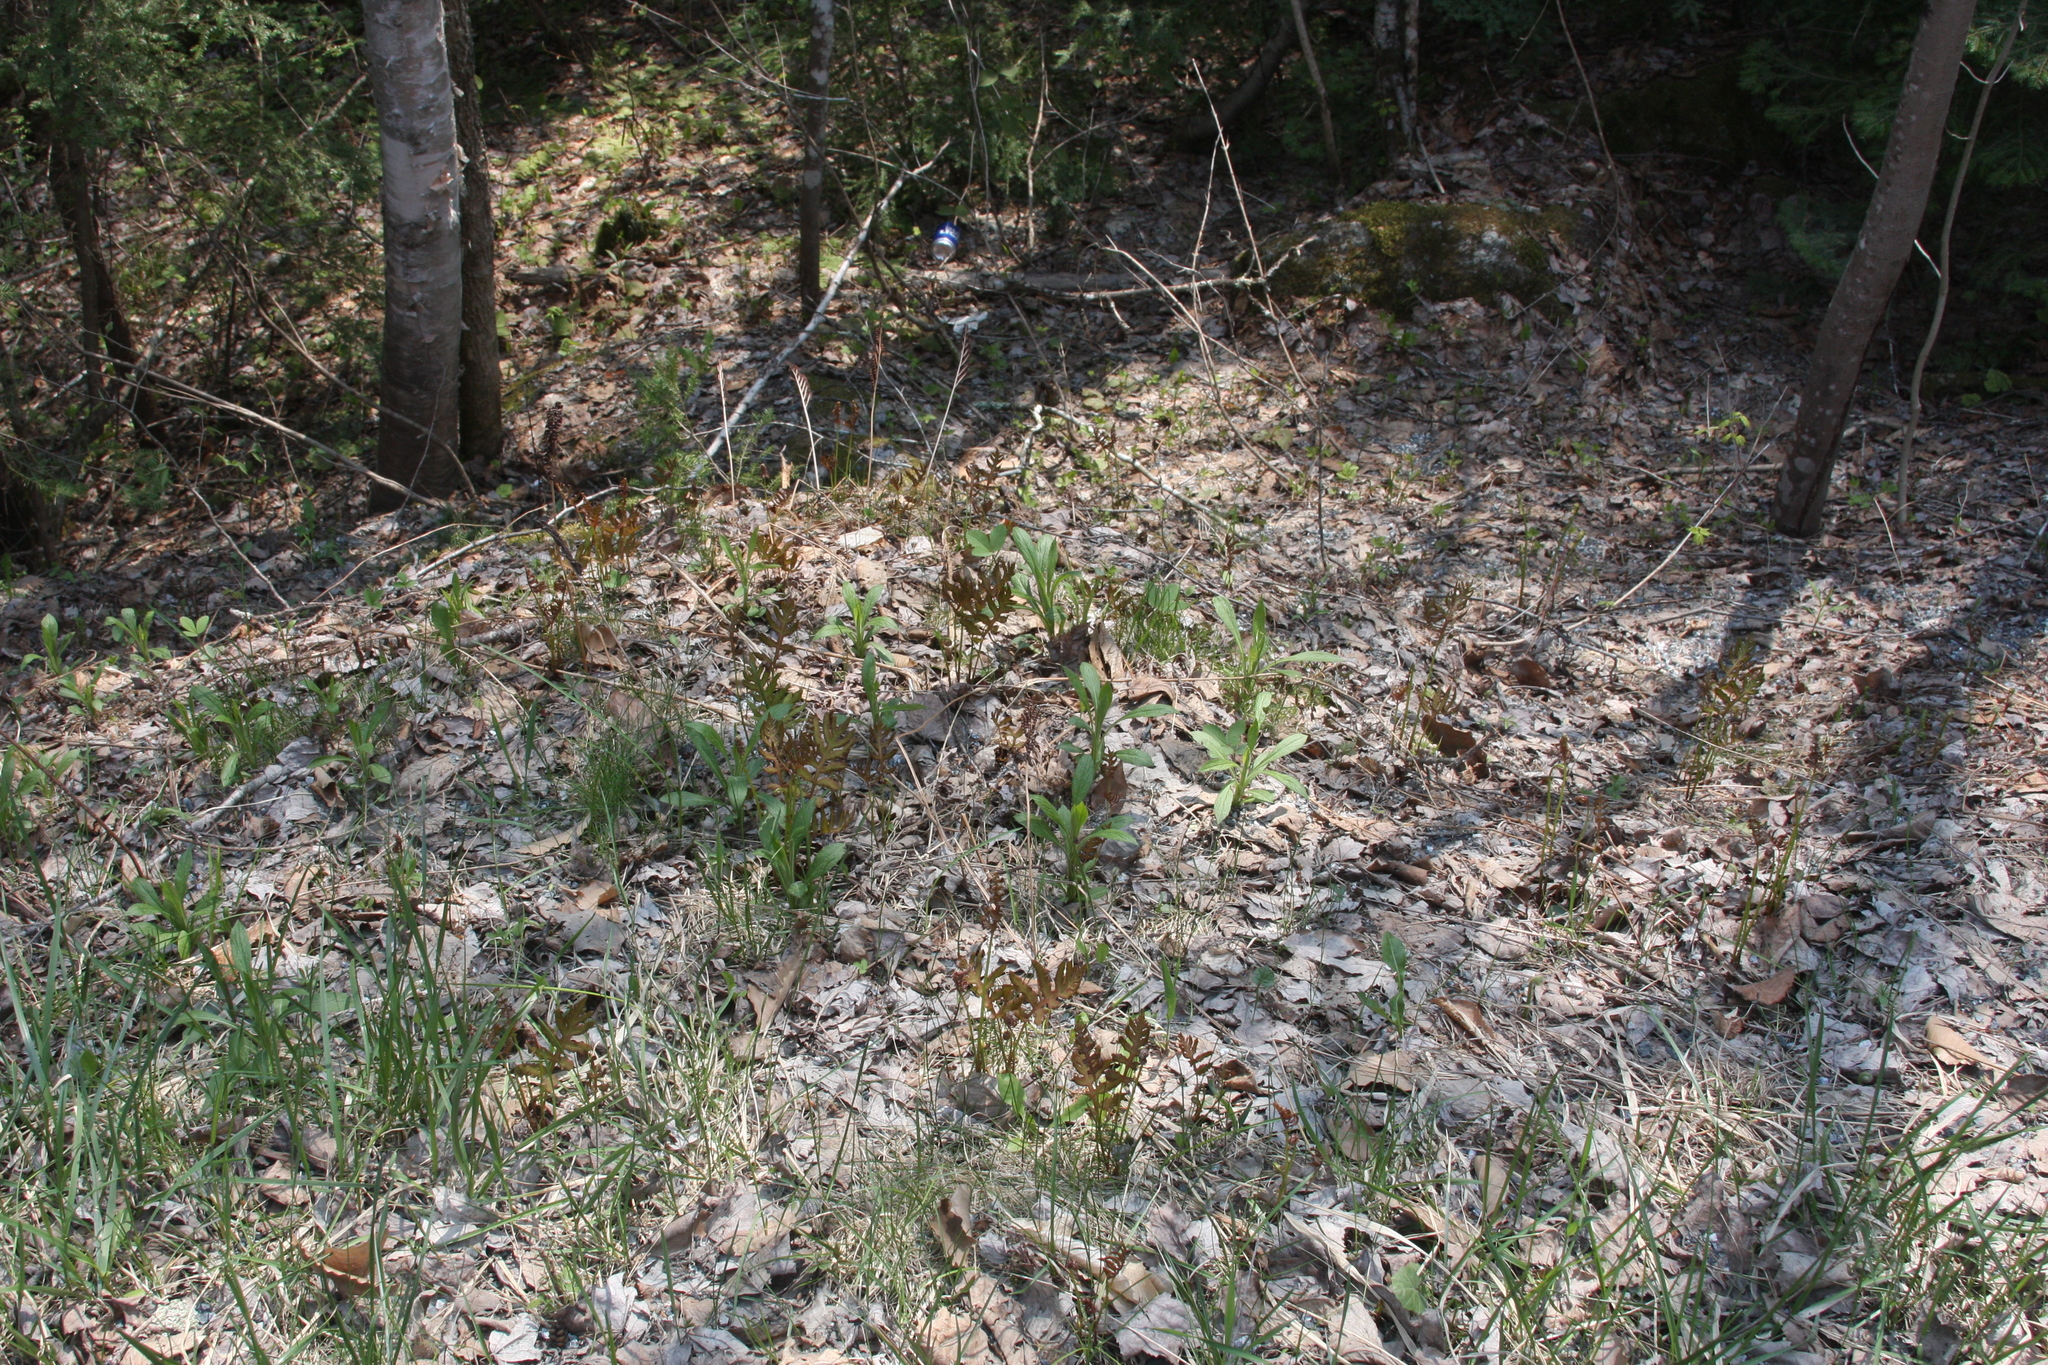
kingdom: Plantae
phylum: Tracheophyta
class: Polypodiopsida
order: Polypodiales
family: Onocleaceae
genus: Onoclea
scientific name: Onoclea sensibilis
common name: Sensitive fern
